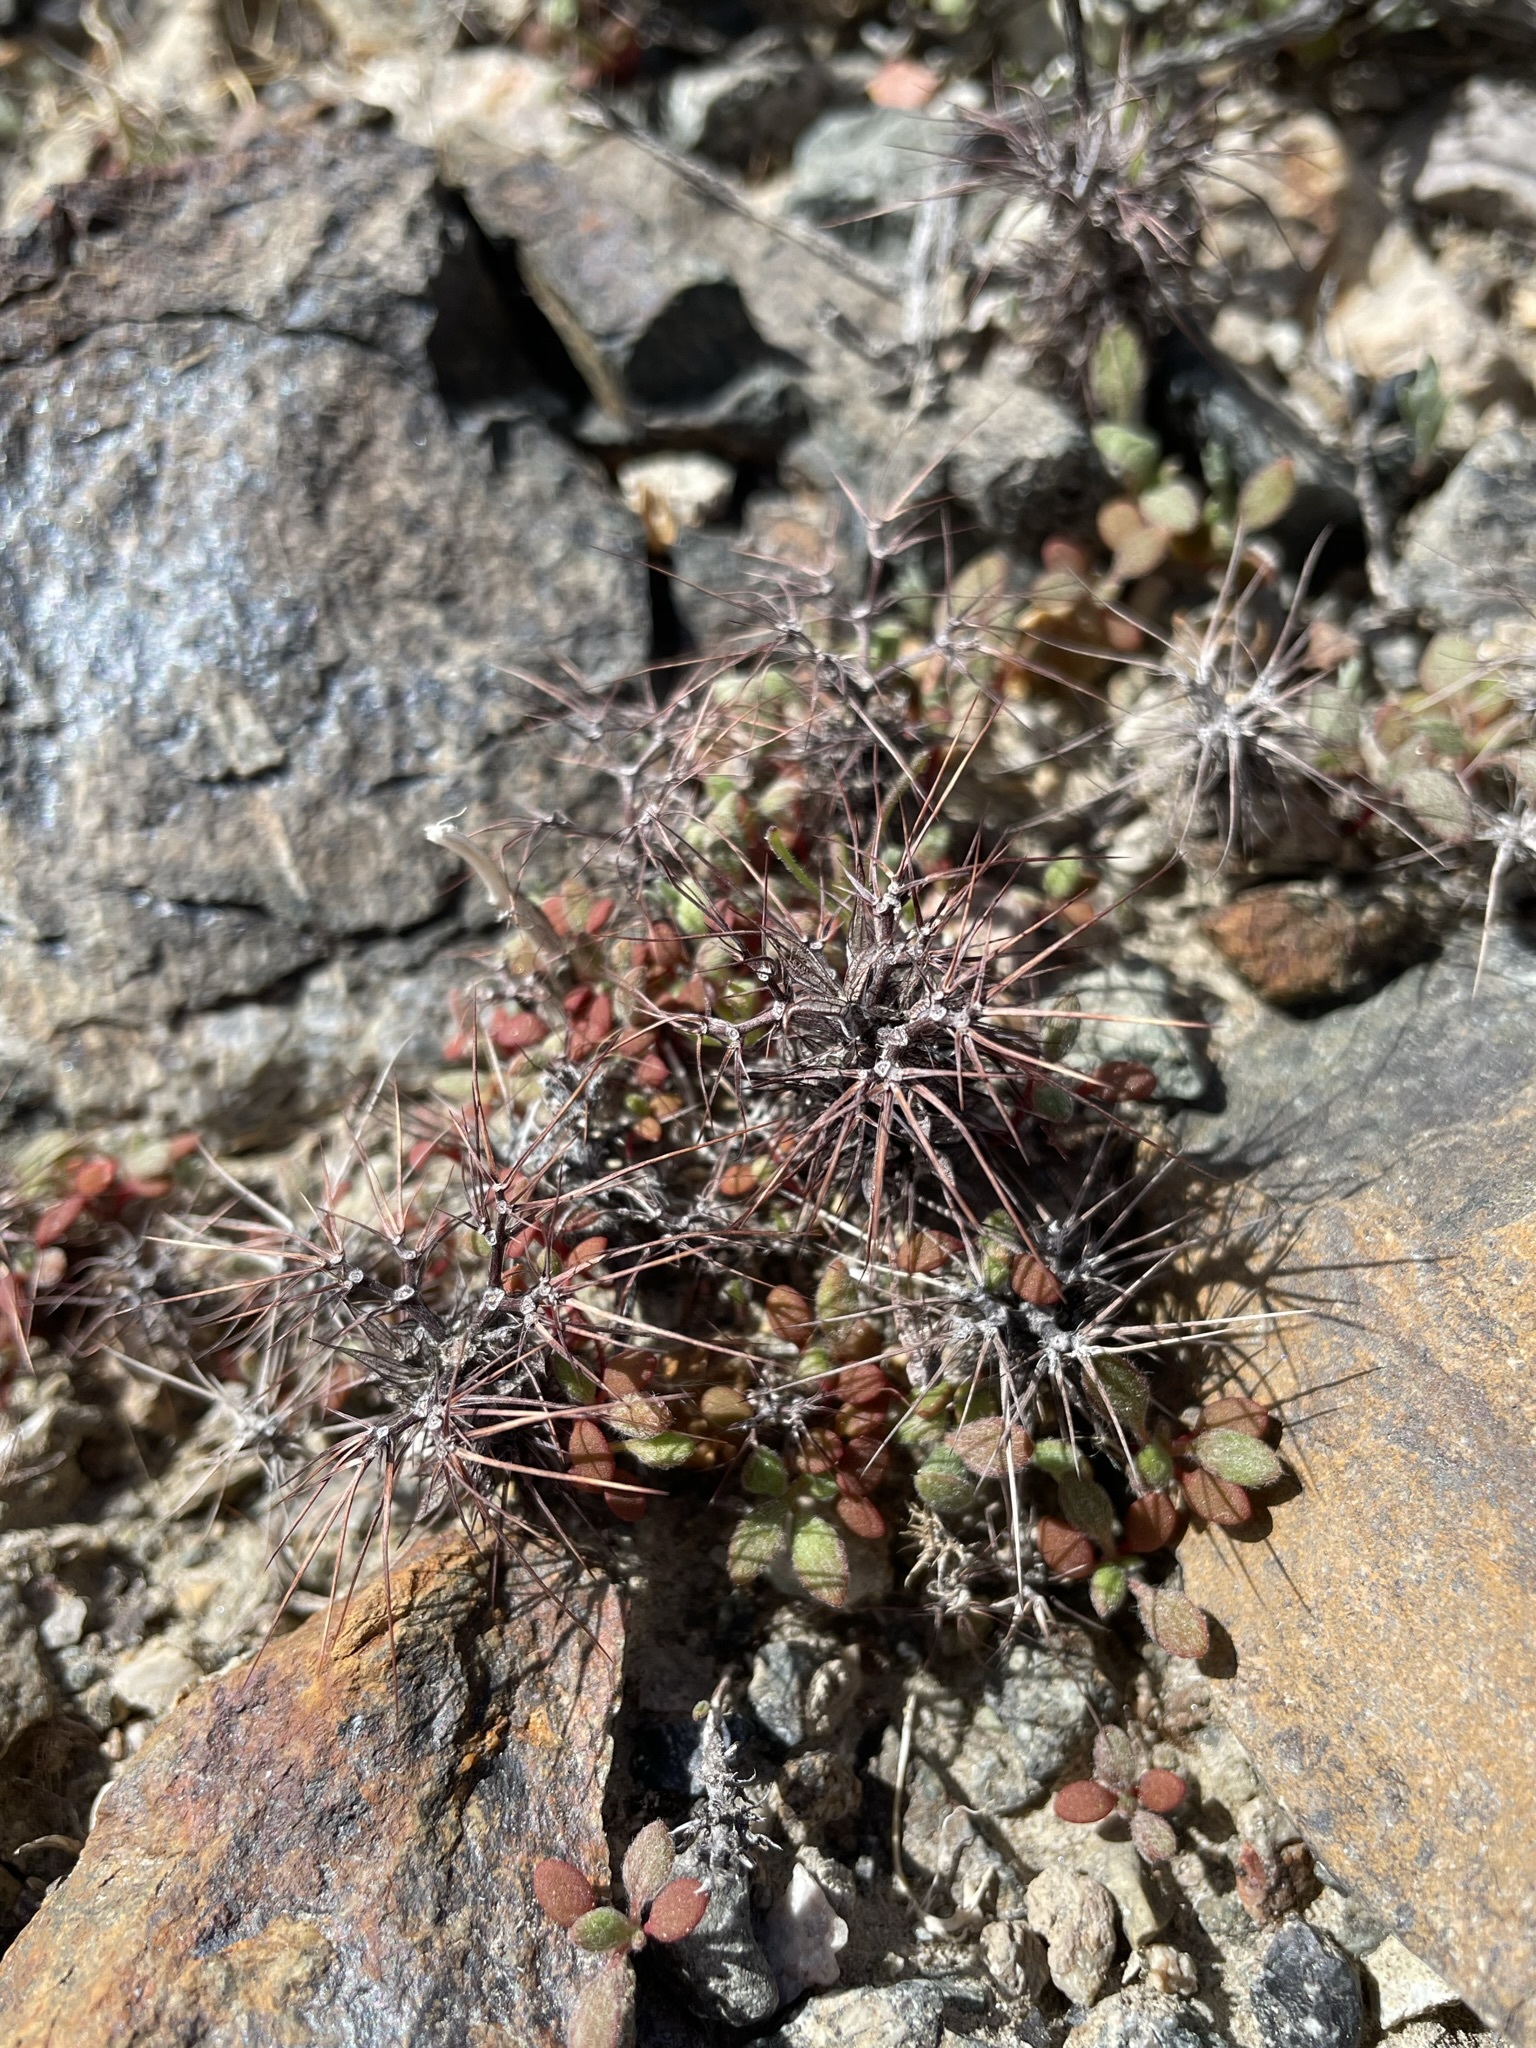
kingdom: Plantae
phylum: Tracheophyta
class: Magnoliopsida
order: Caryophyllales
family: Polygonaceae
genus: Chorizanthe
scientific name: Chorizanthe rigida
